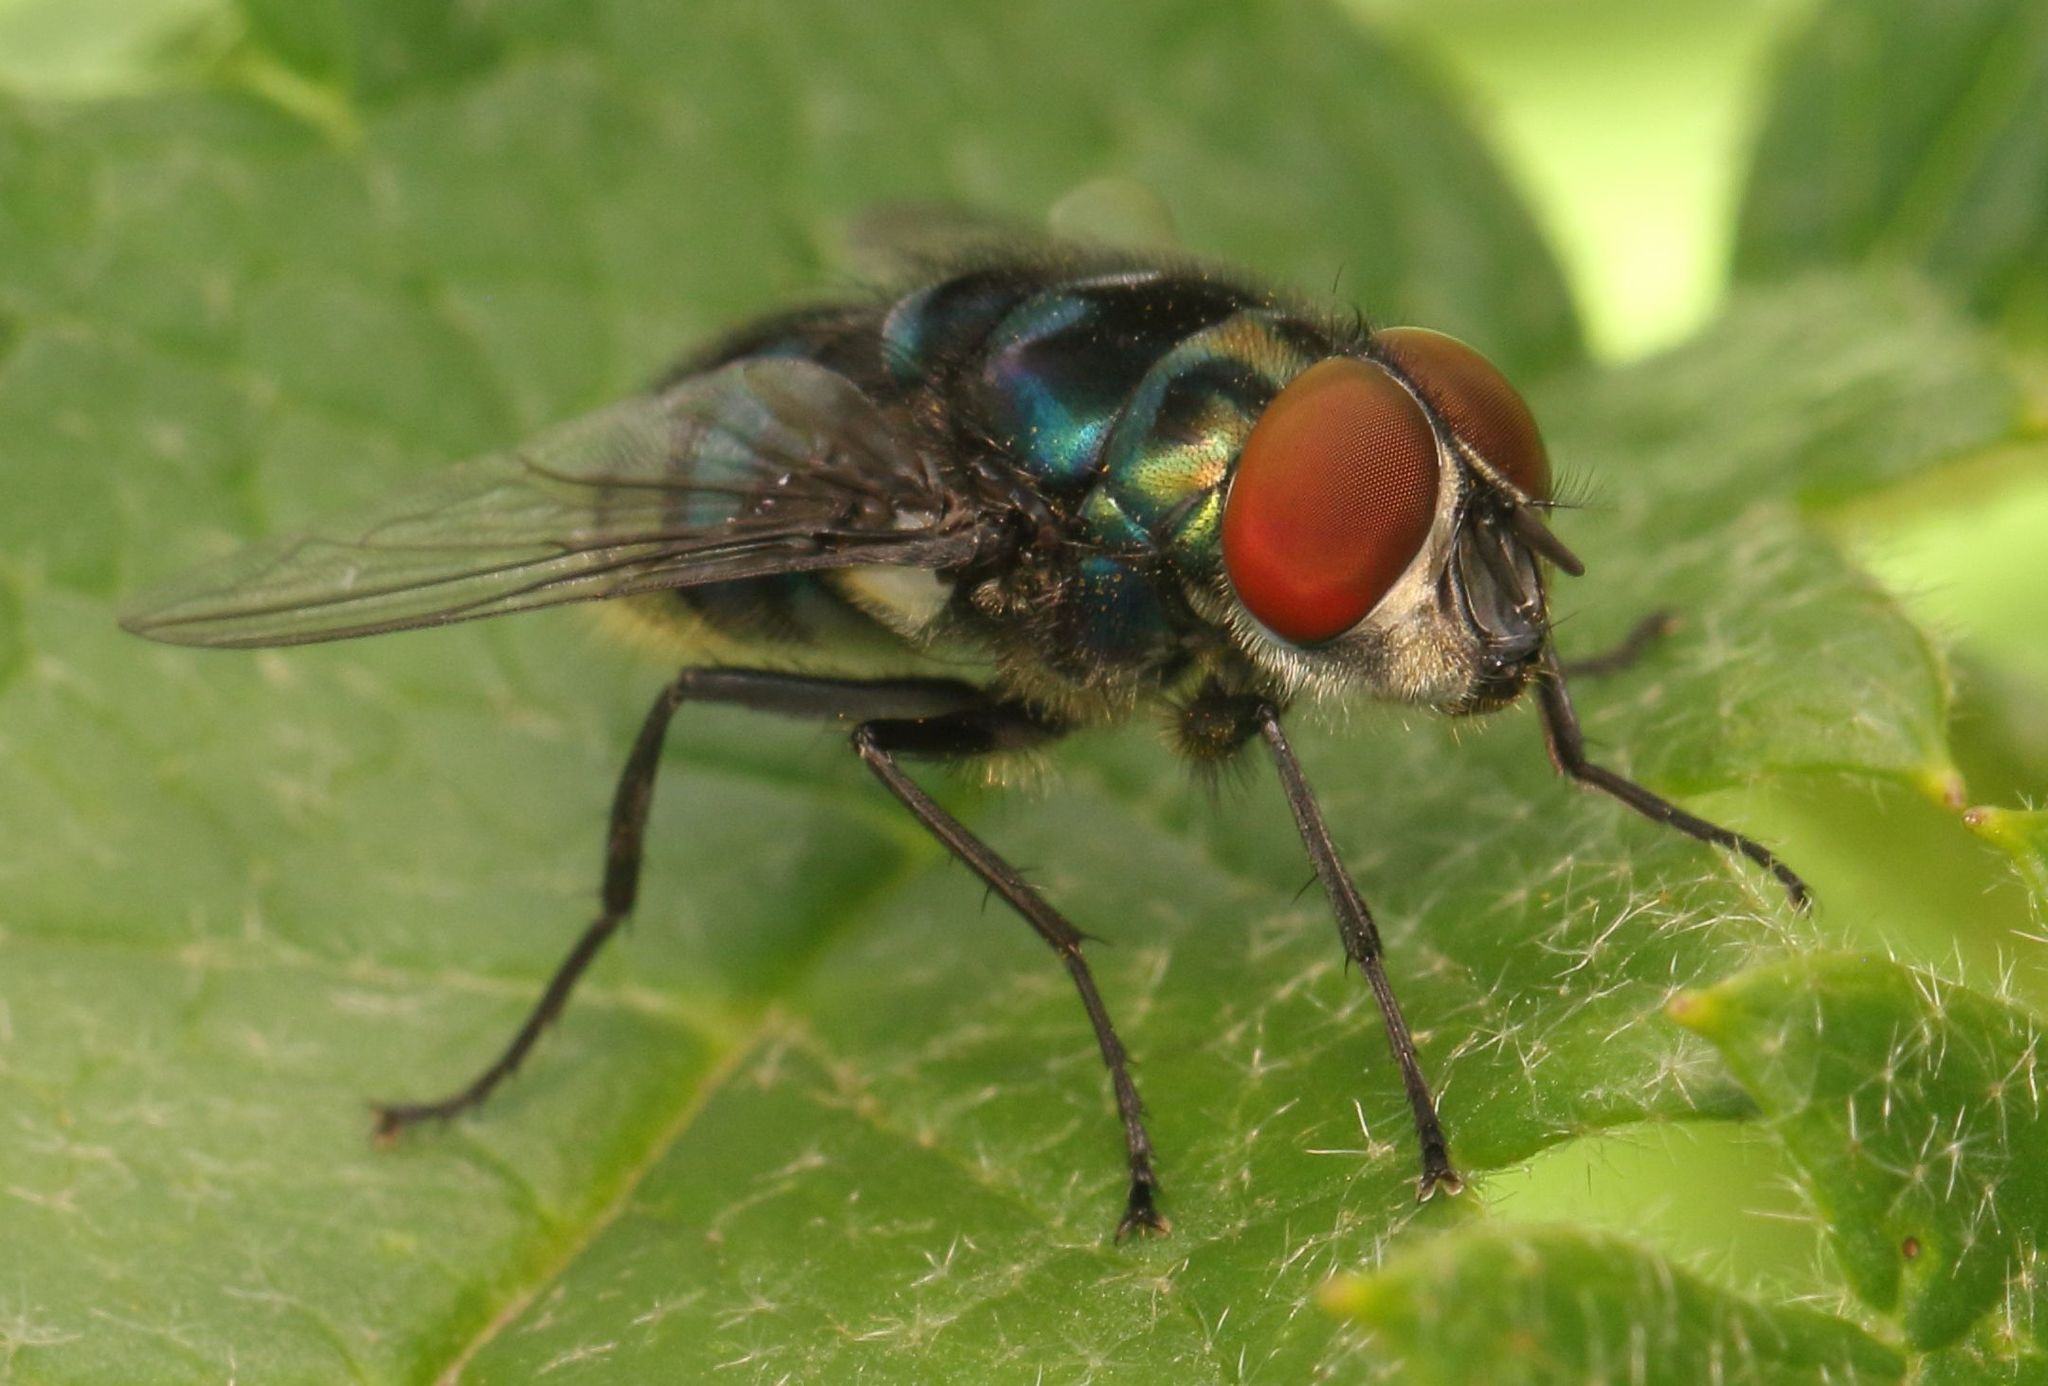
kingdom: Animalia
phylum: Arthropoda
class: Insecta
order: Diptera
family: Calliphoridae
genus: Chrysomya
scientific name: Chrysomya chloropyga
